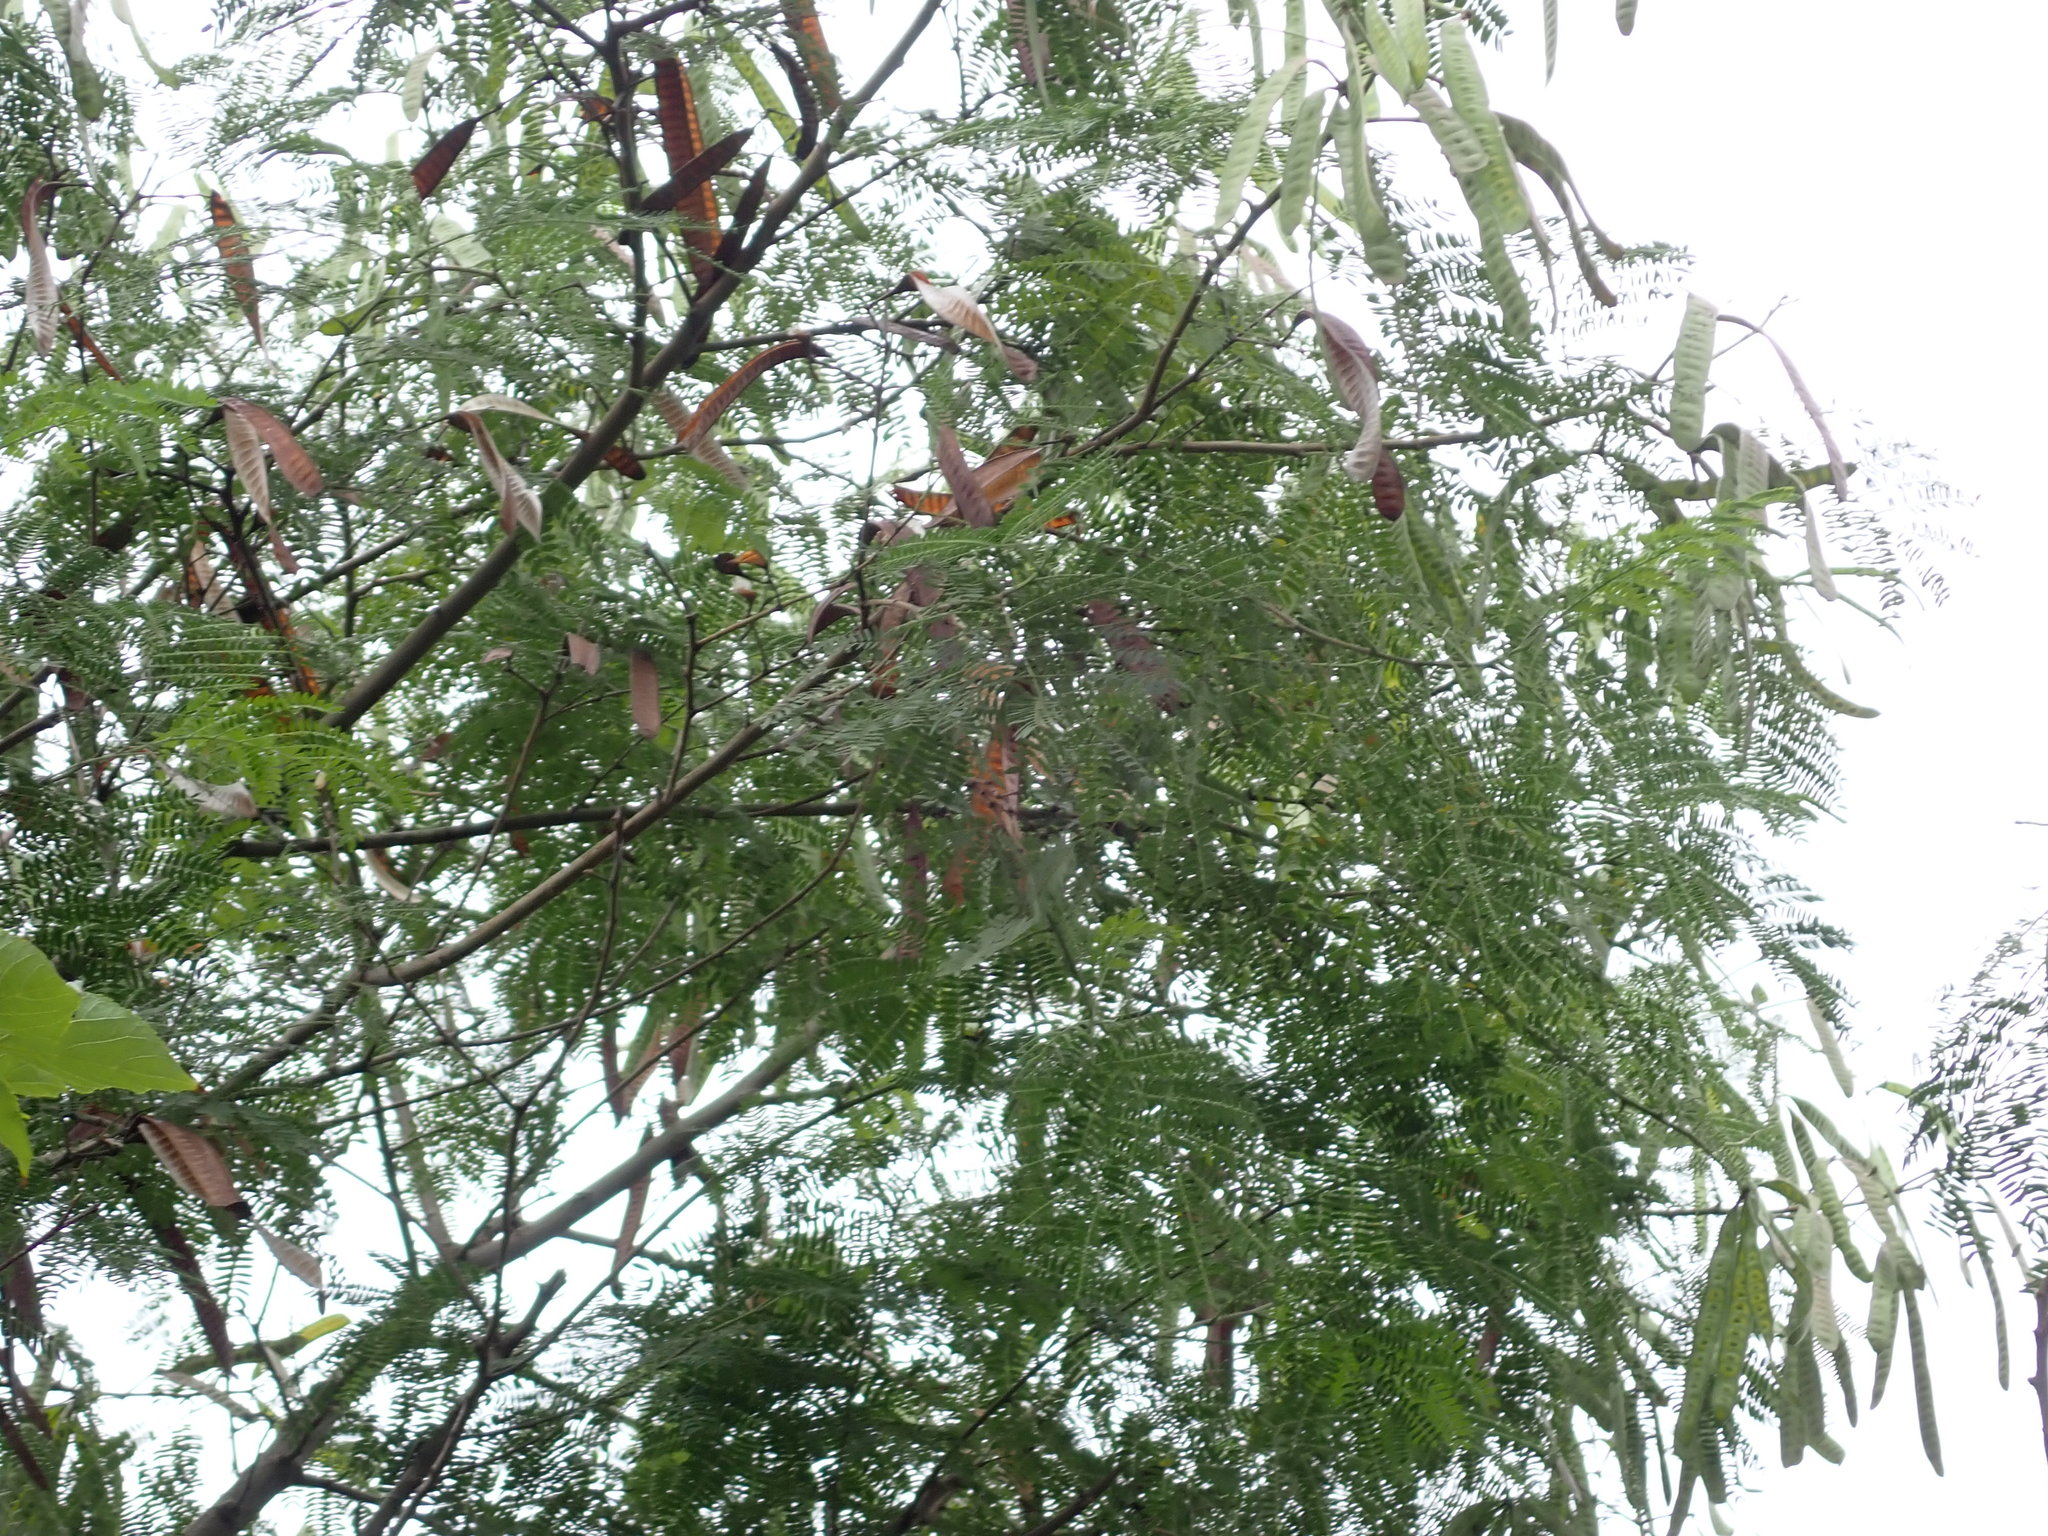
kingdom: Plantae
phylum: Tracheophyta
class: Magnoliopsida
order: Fabales
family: Fabaceae
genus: Leucaena
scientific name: Leucaena leucocephala
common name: White leadtree
